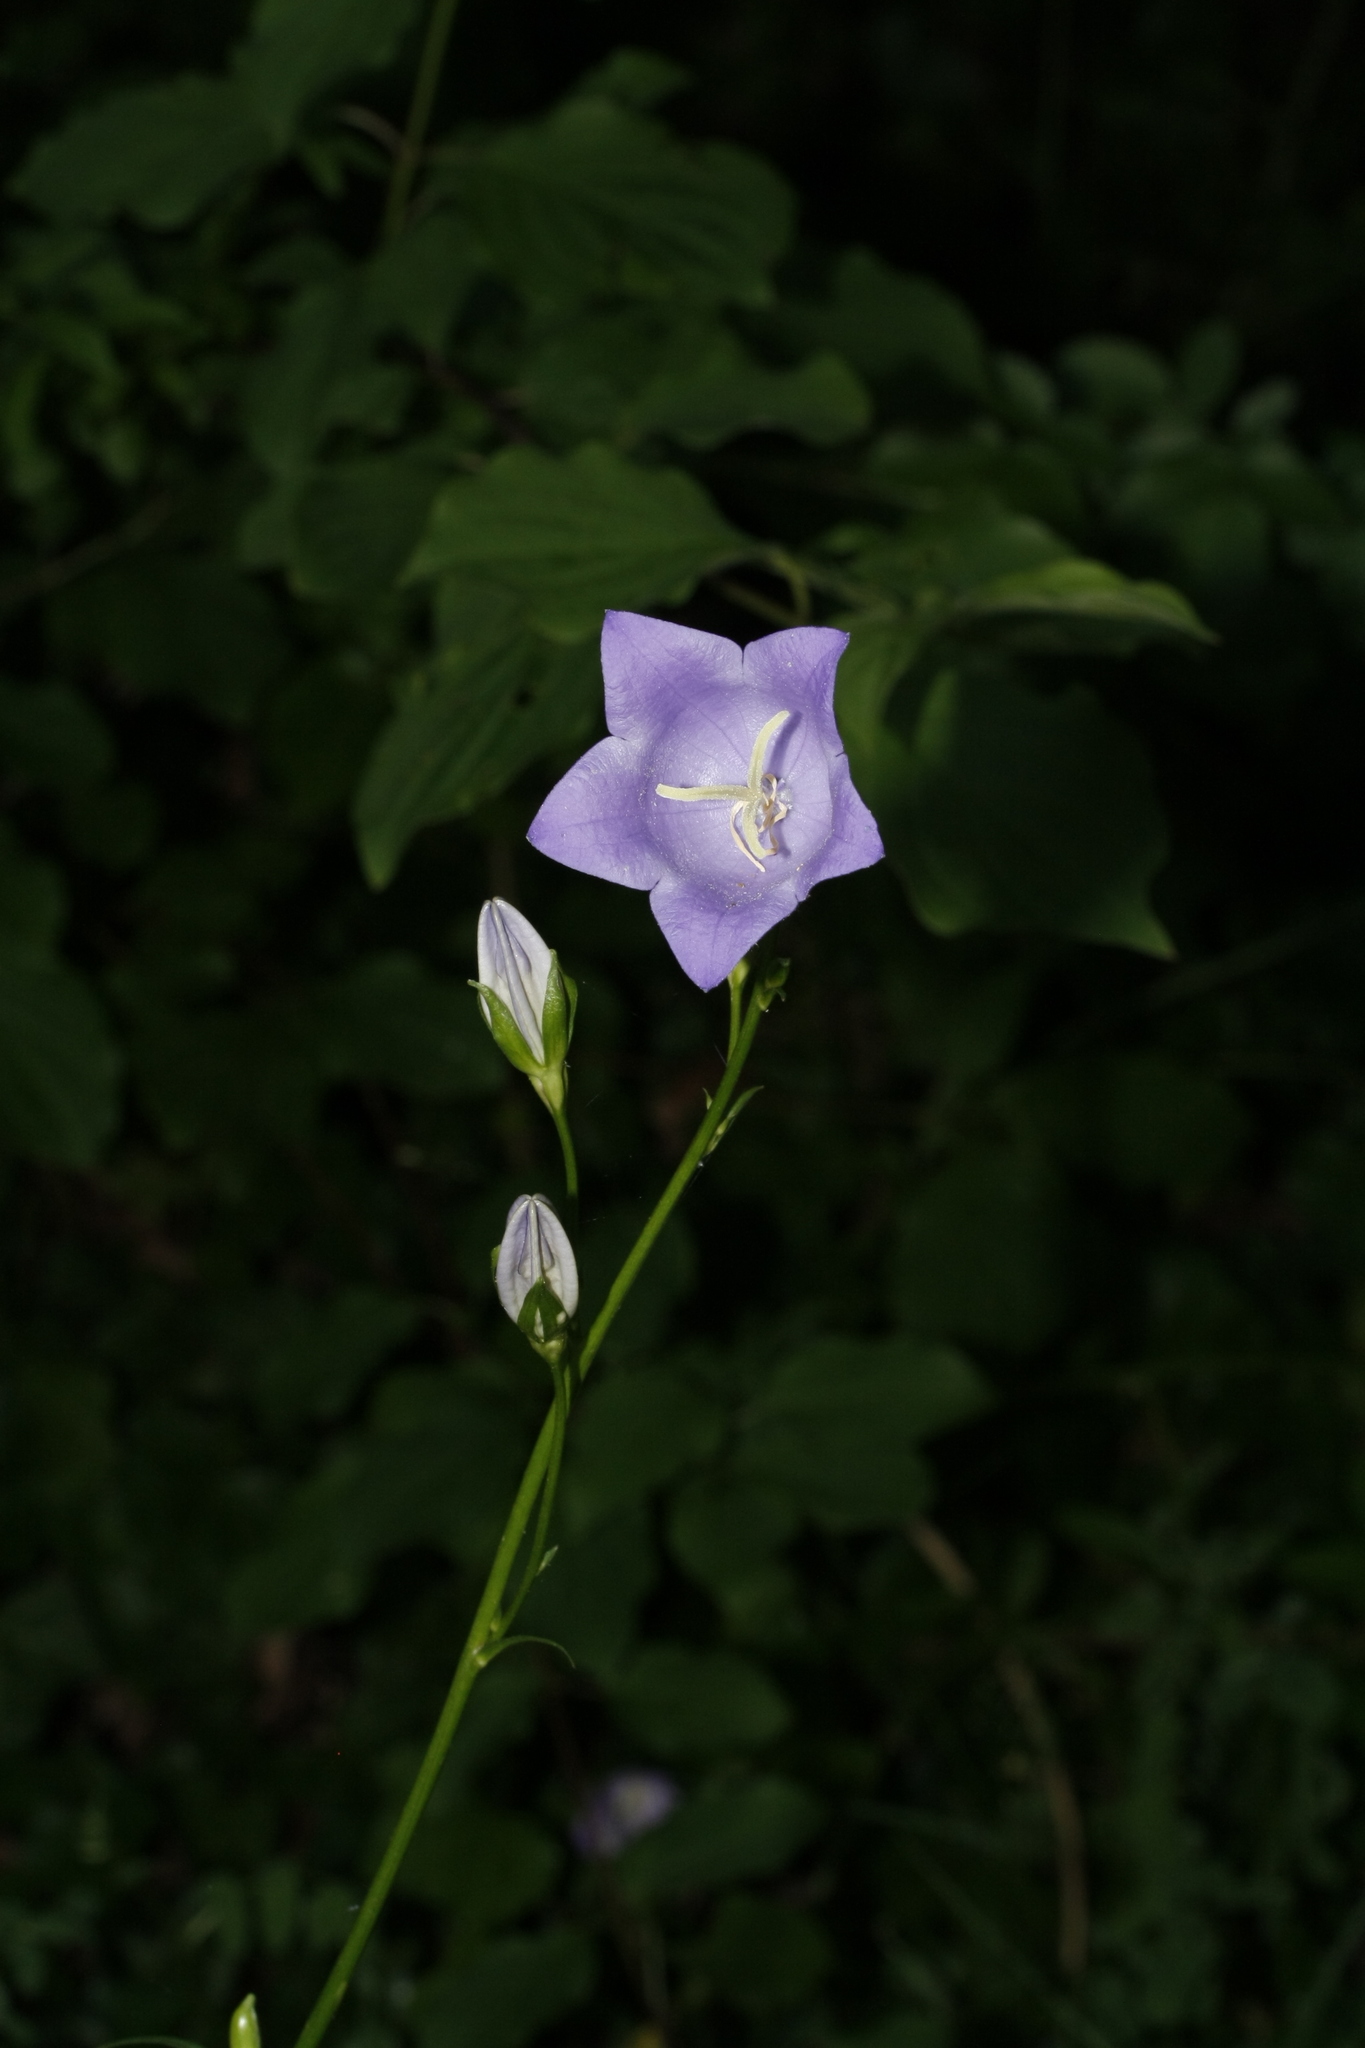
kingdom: Plantae
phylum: Tracheophyta
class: Magnoliopsida
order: Asterales
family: Campanulaceae
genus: Campanula
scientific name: Campanula persicifolia
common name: Peach-leaved bellflower
